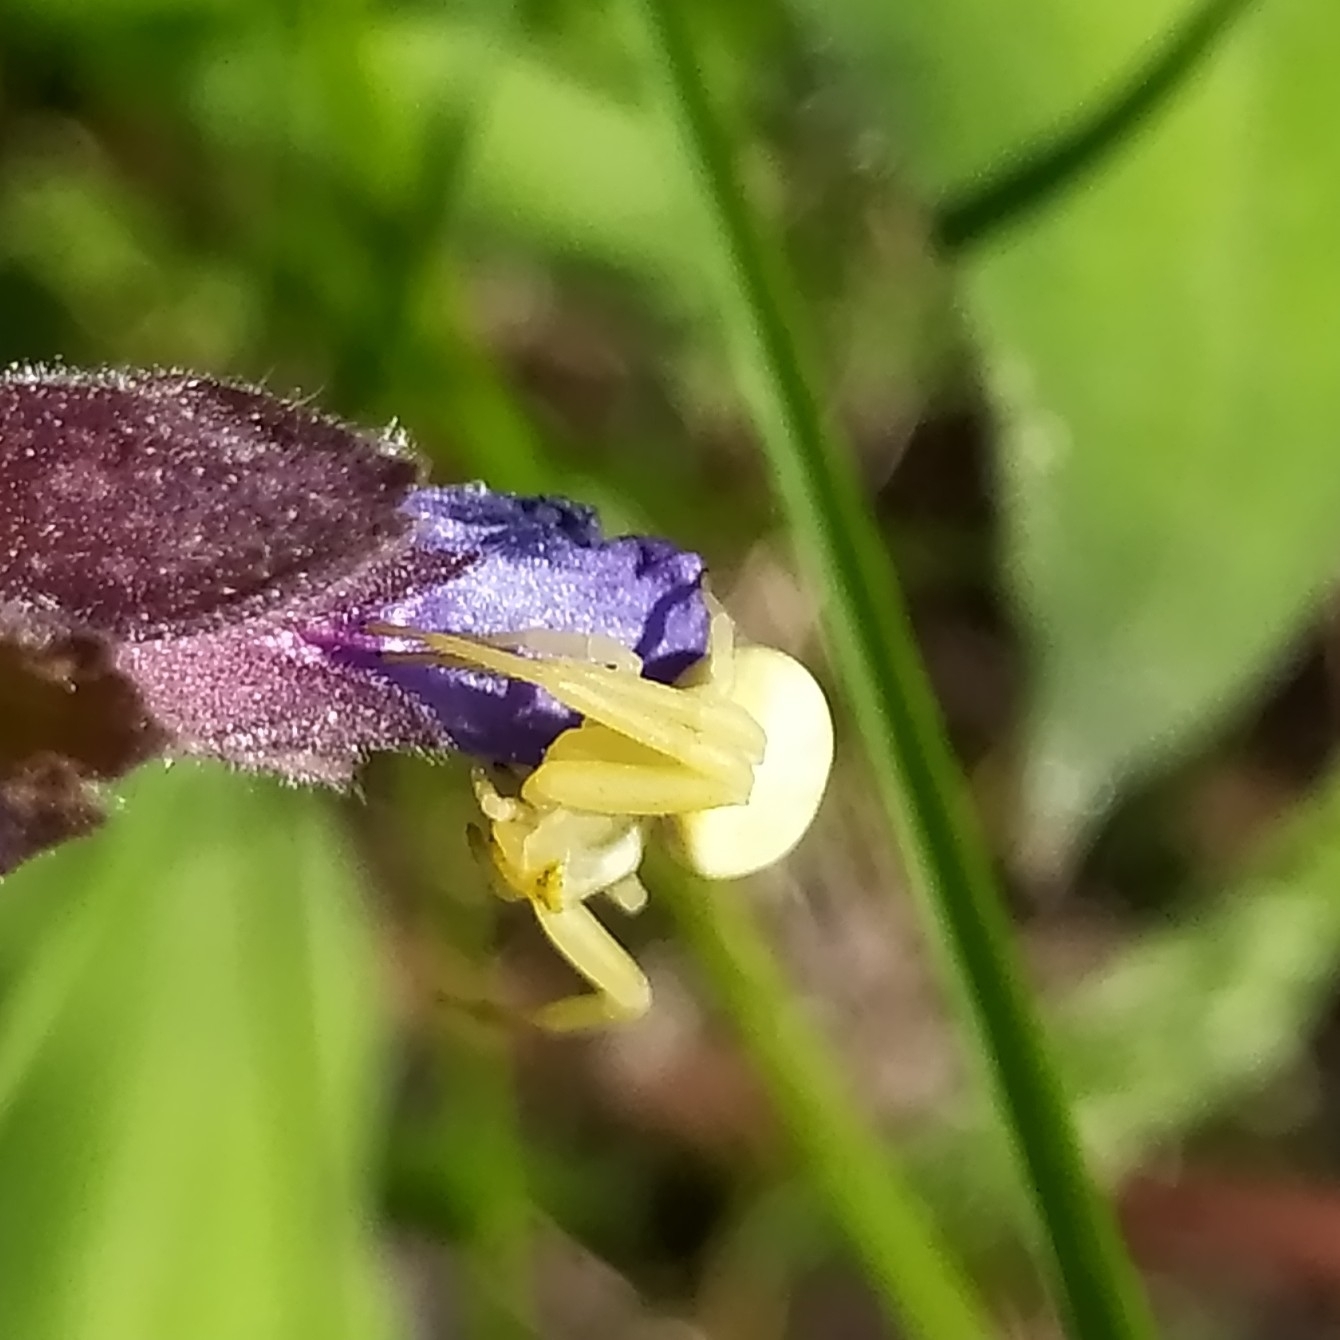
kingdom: Animalia
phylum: Arthropoda
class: Arachnida
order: Araneae
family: Thomisidae
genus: Misumena
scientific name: Misumena vatia
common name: Goldenrod crab spider
